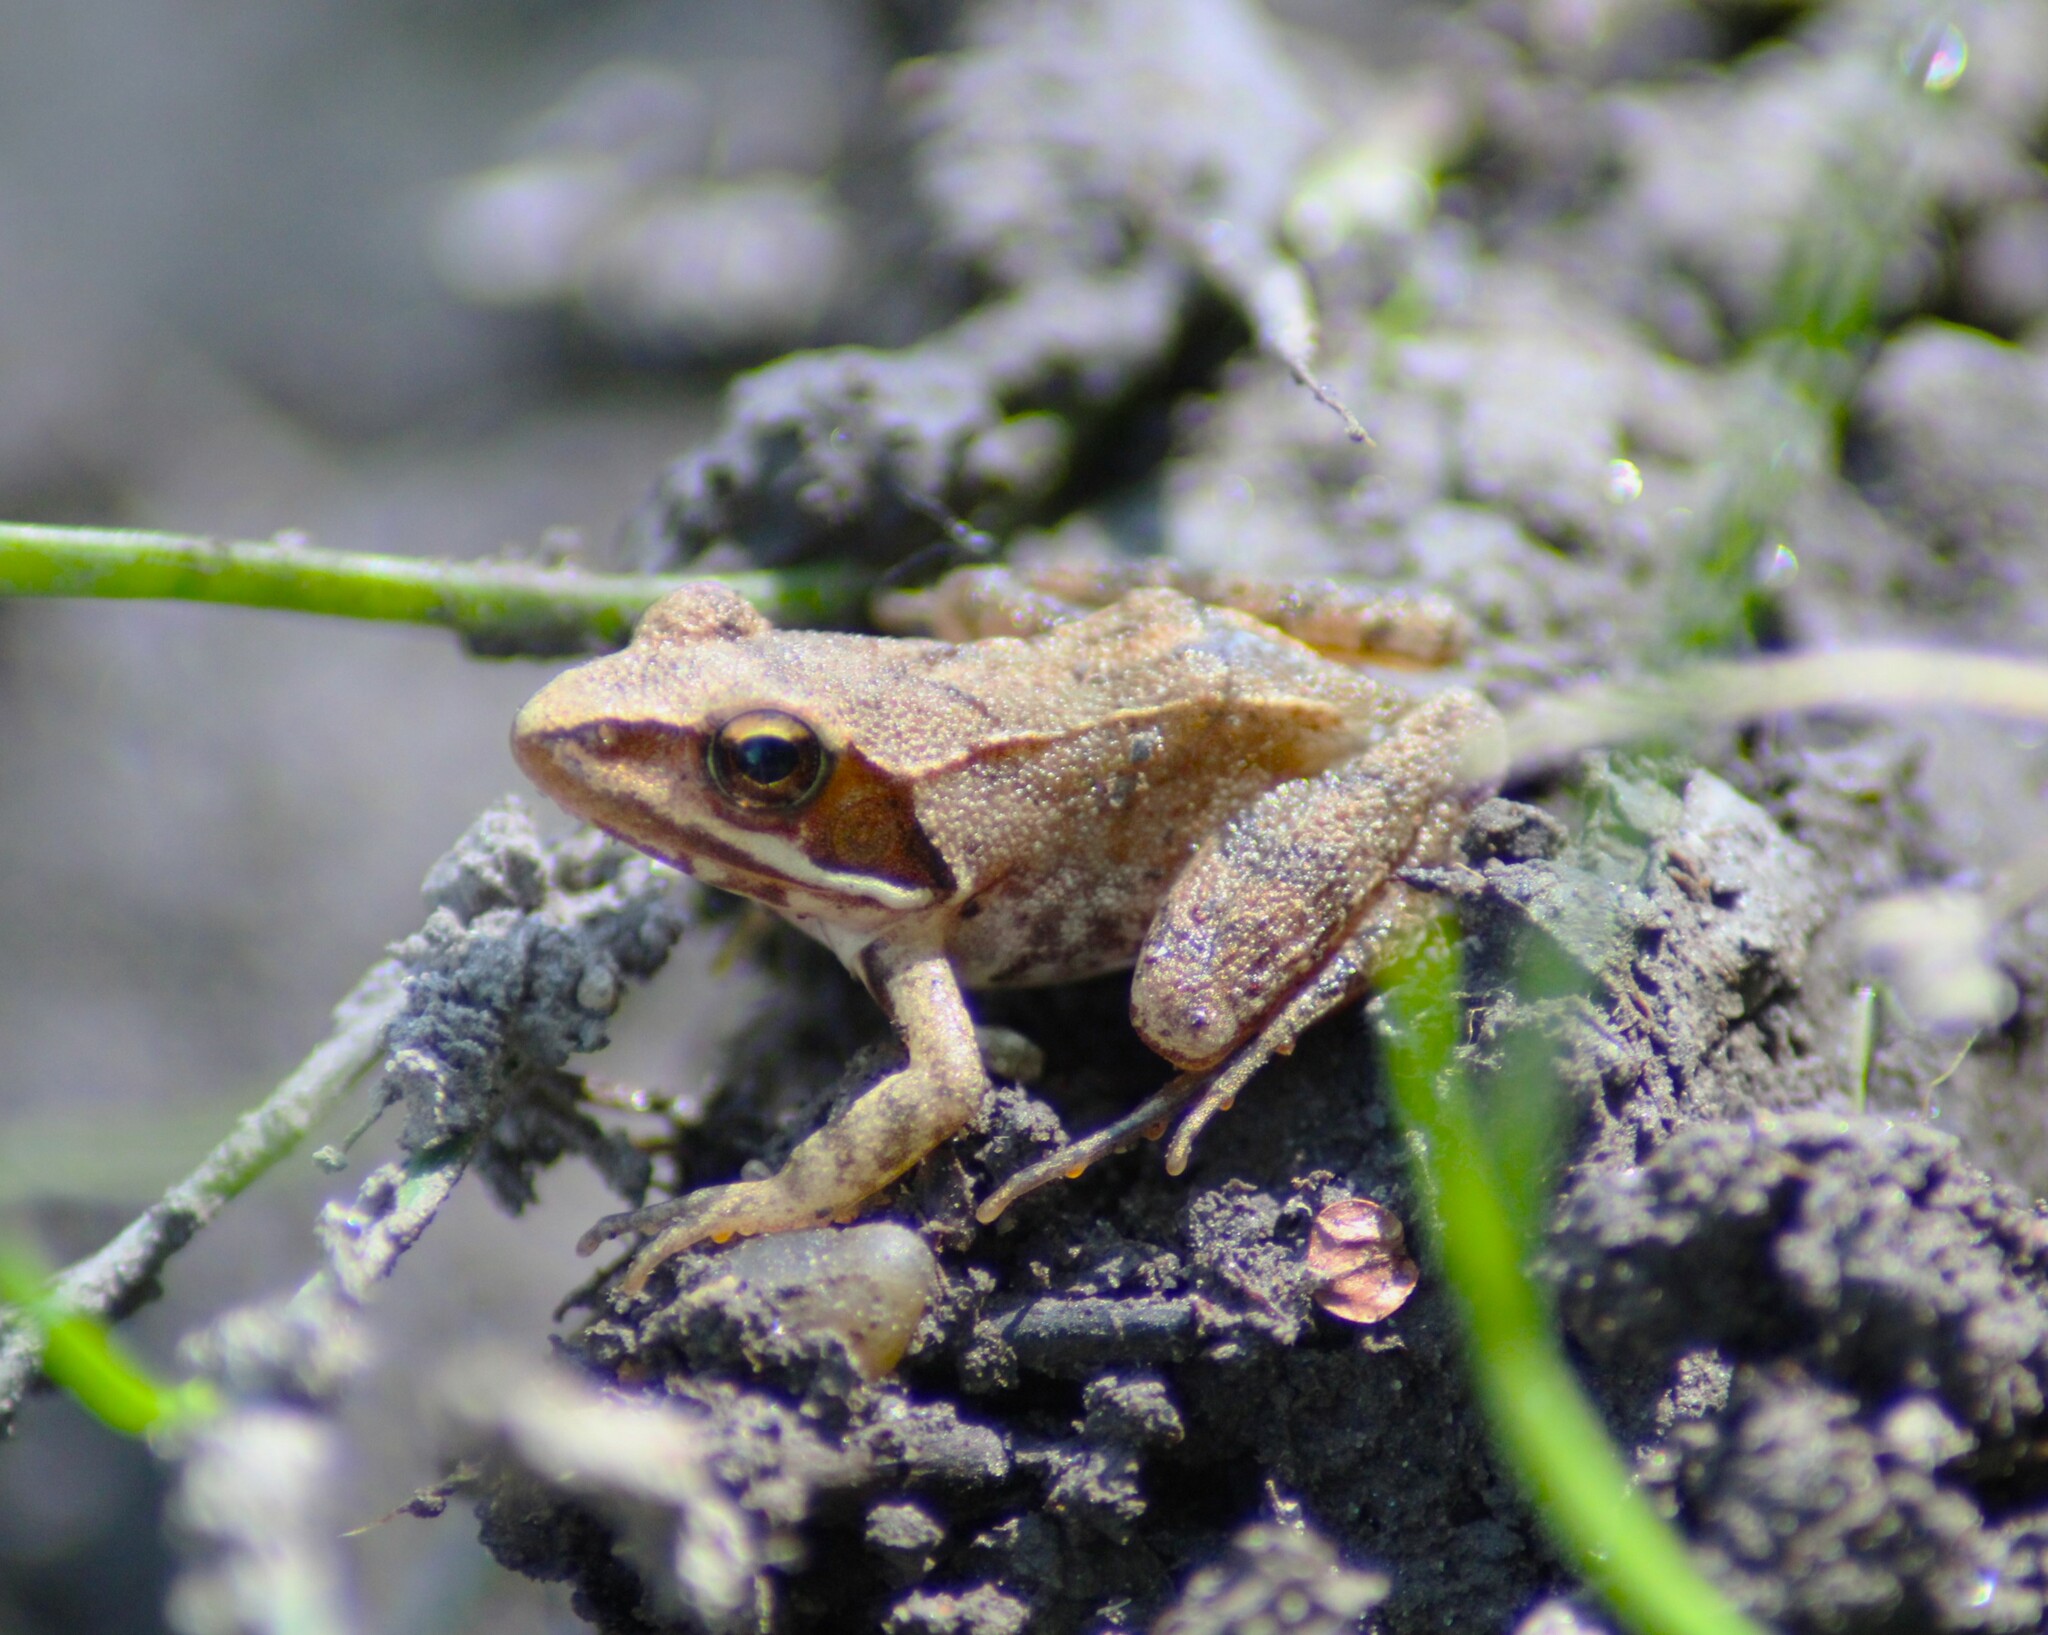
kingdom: Animalia
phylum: Chordata
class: Amphibia
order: Anura
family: Ranidae
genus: Rana
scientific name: Rana dalmatina
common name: Agile frog
